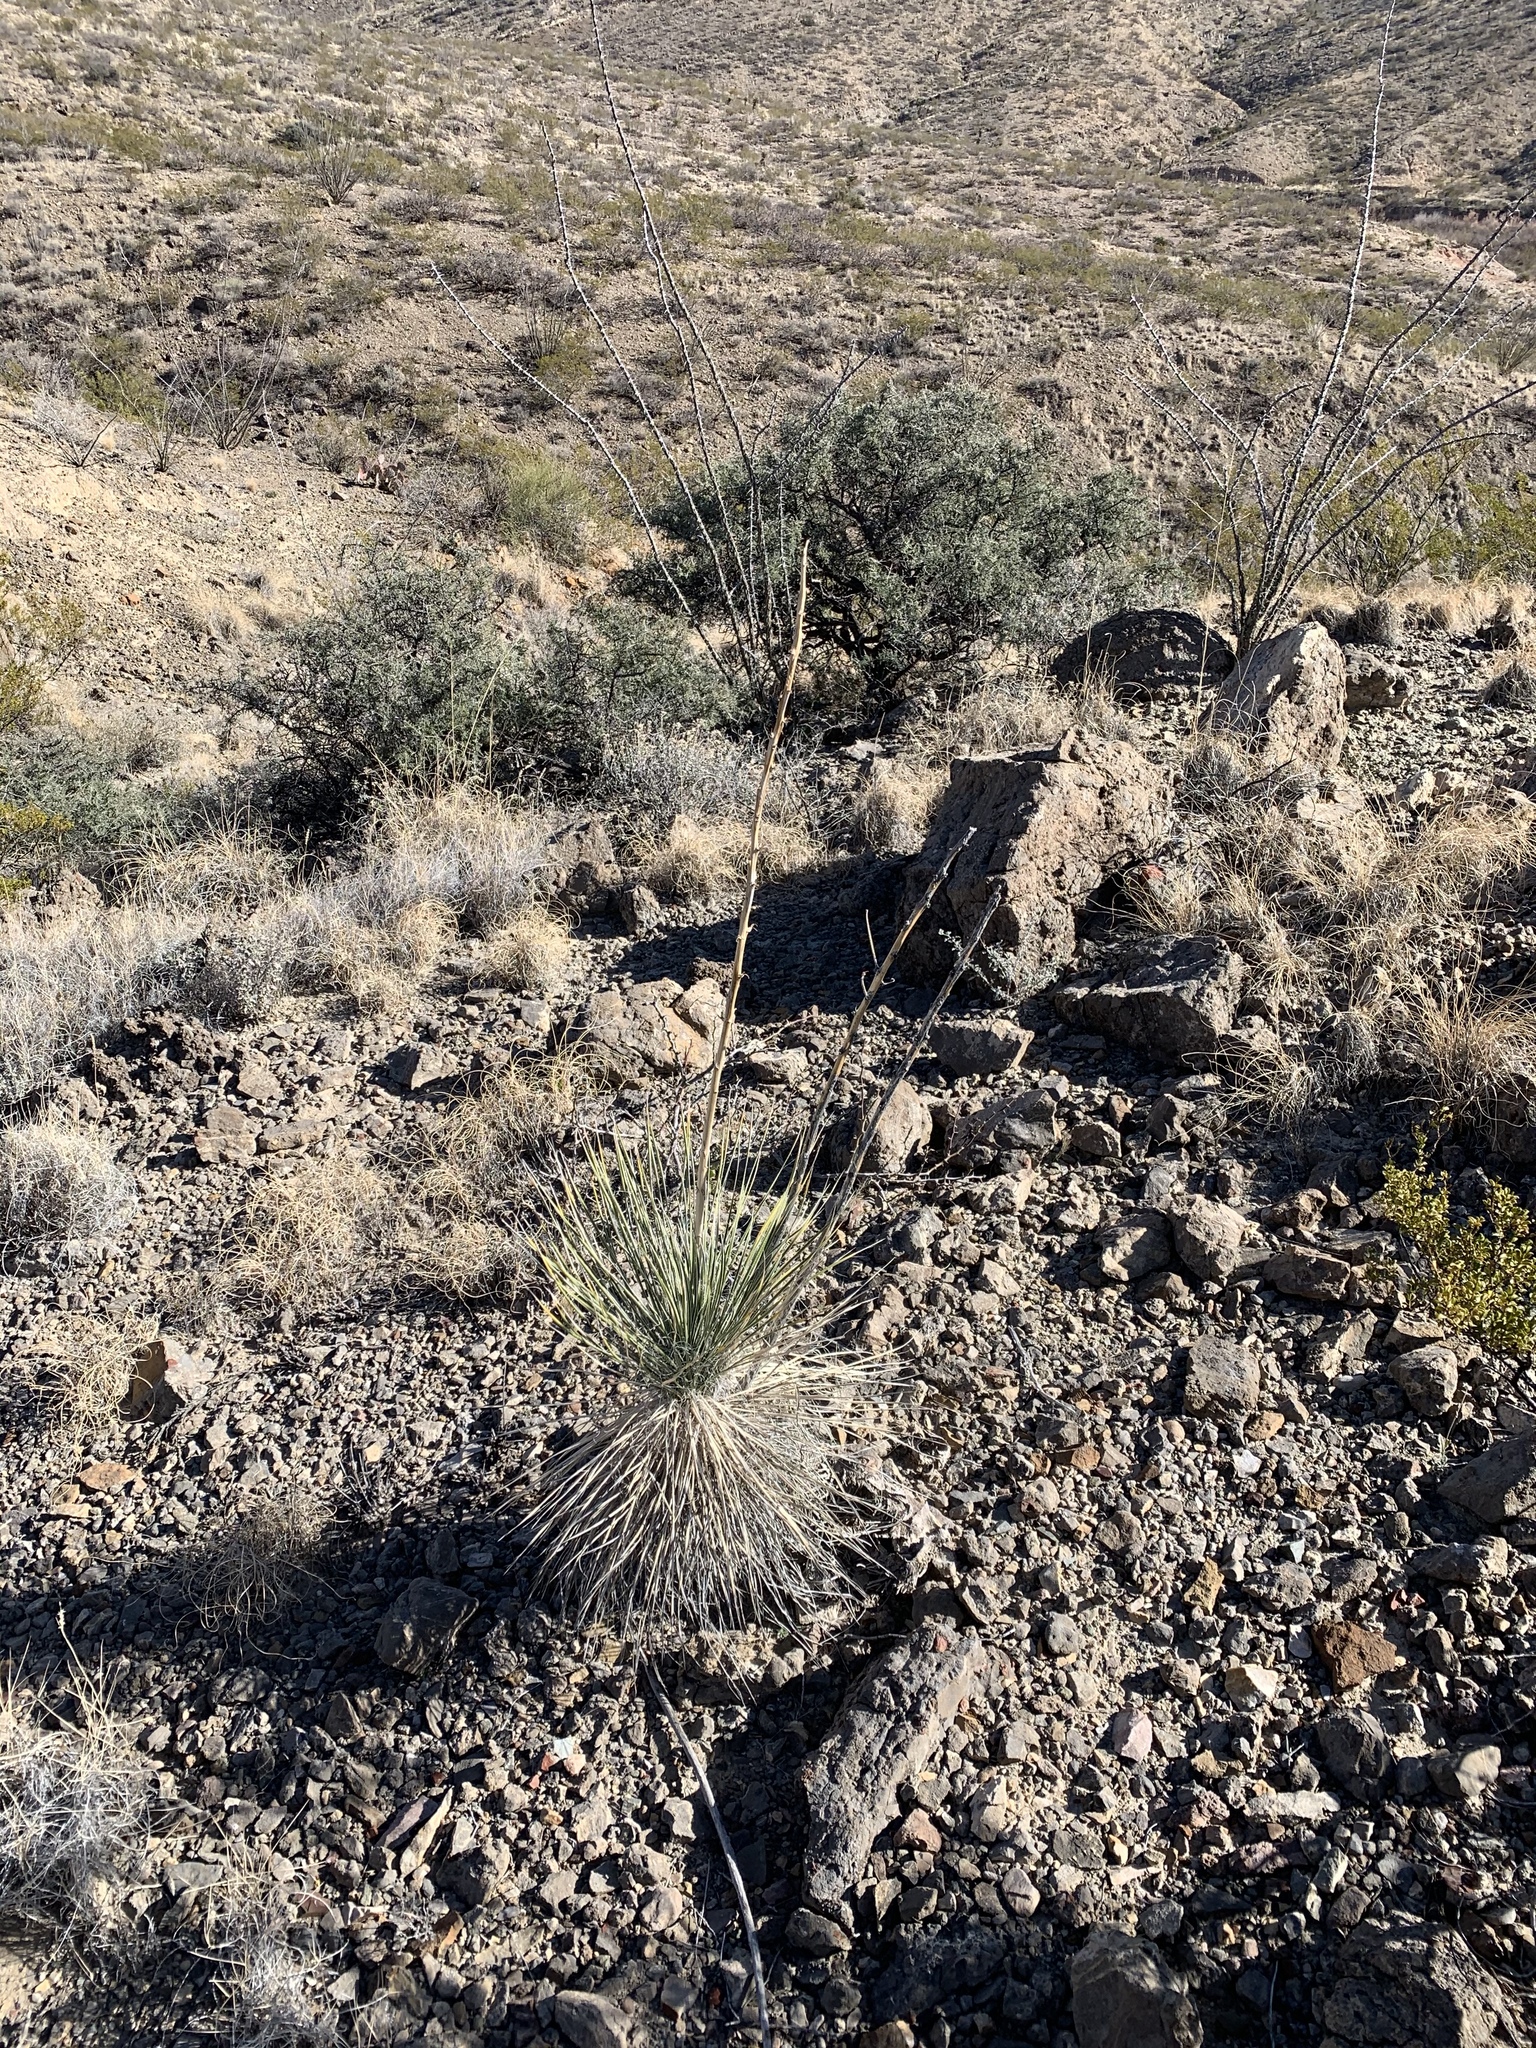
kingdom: Plantae
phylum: Tracheophyta
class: Liliopsida
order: Asparagales
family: Asparagaceae
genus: Yucca
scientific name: Yucca elata
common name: Palmella
